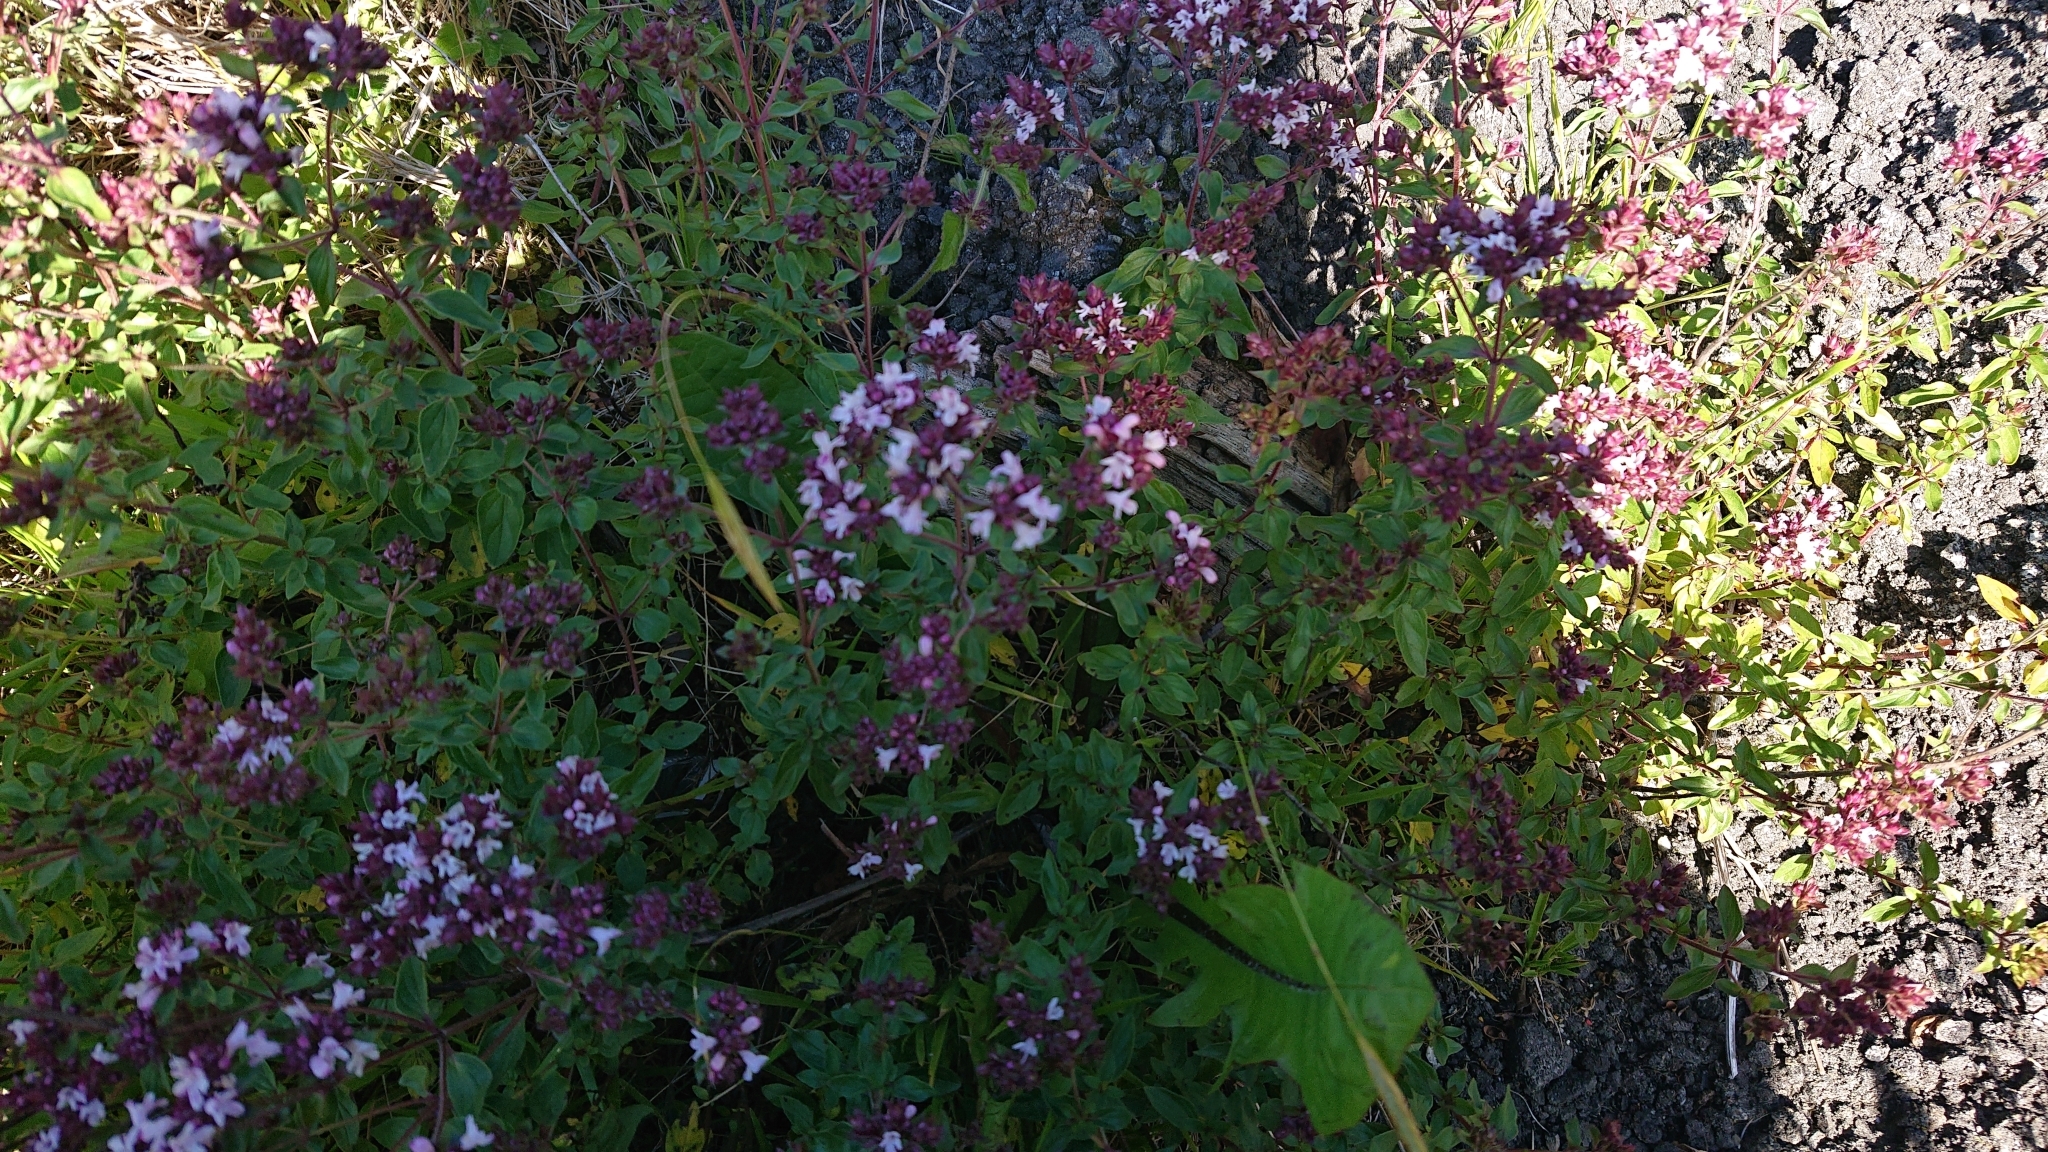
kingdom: Plantae
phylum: Tracheophyta
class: Magnoliopsida
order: Lamiales
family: Lamiaceae
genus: Origanum
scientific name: Origanum vulgare
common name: Wild marjoram
